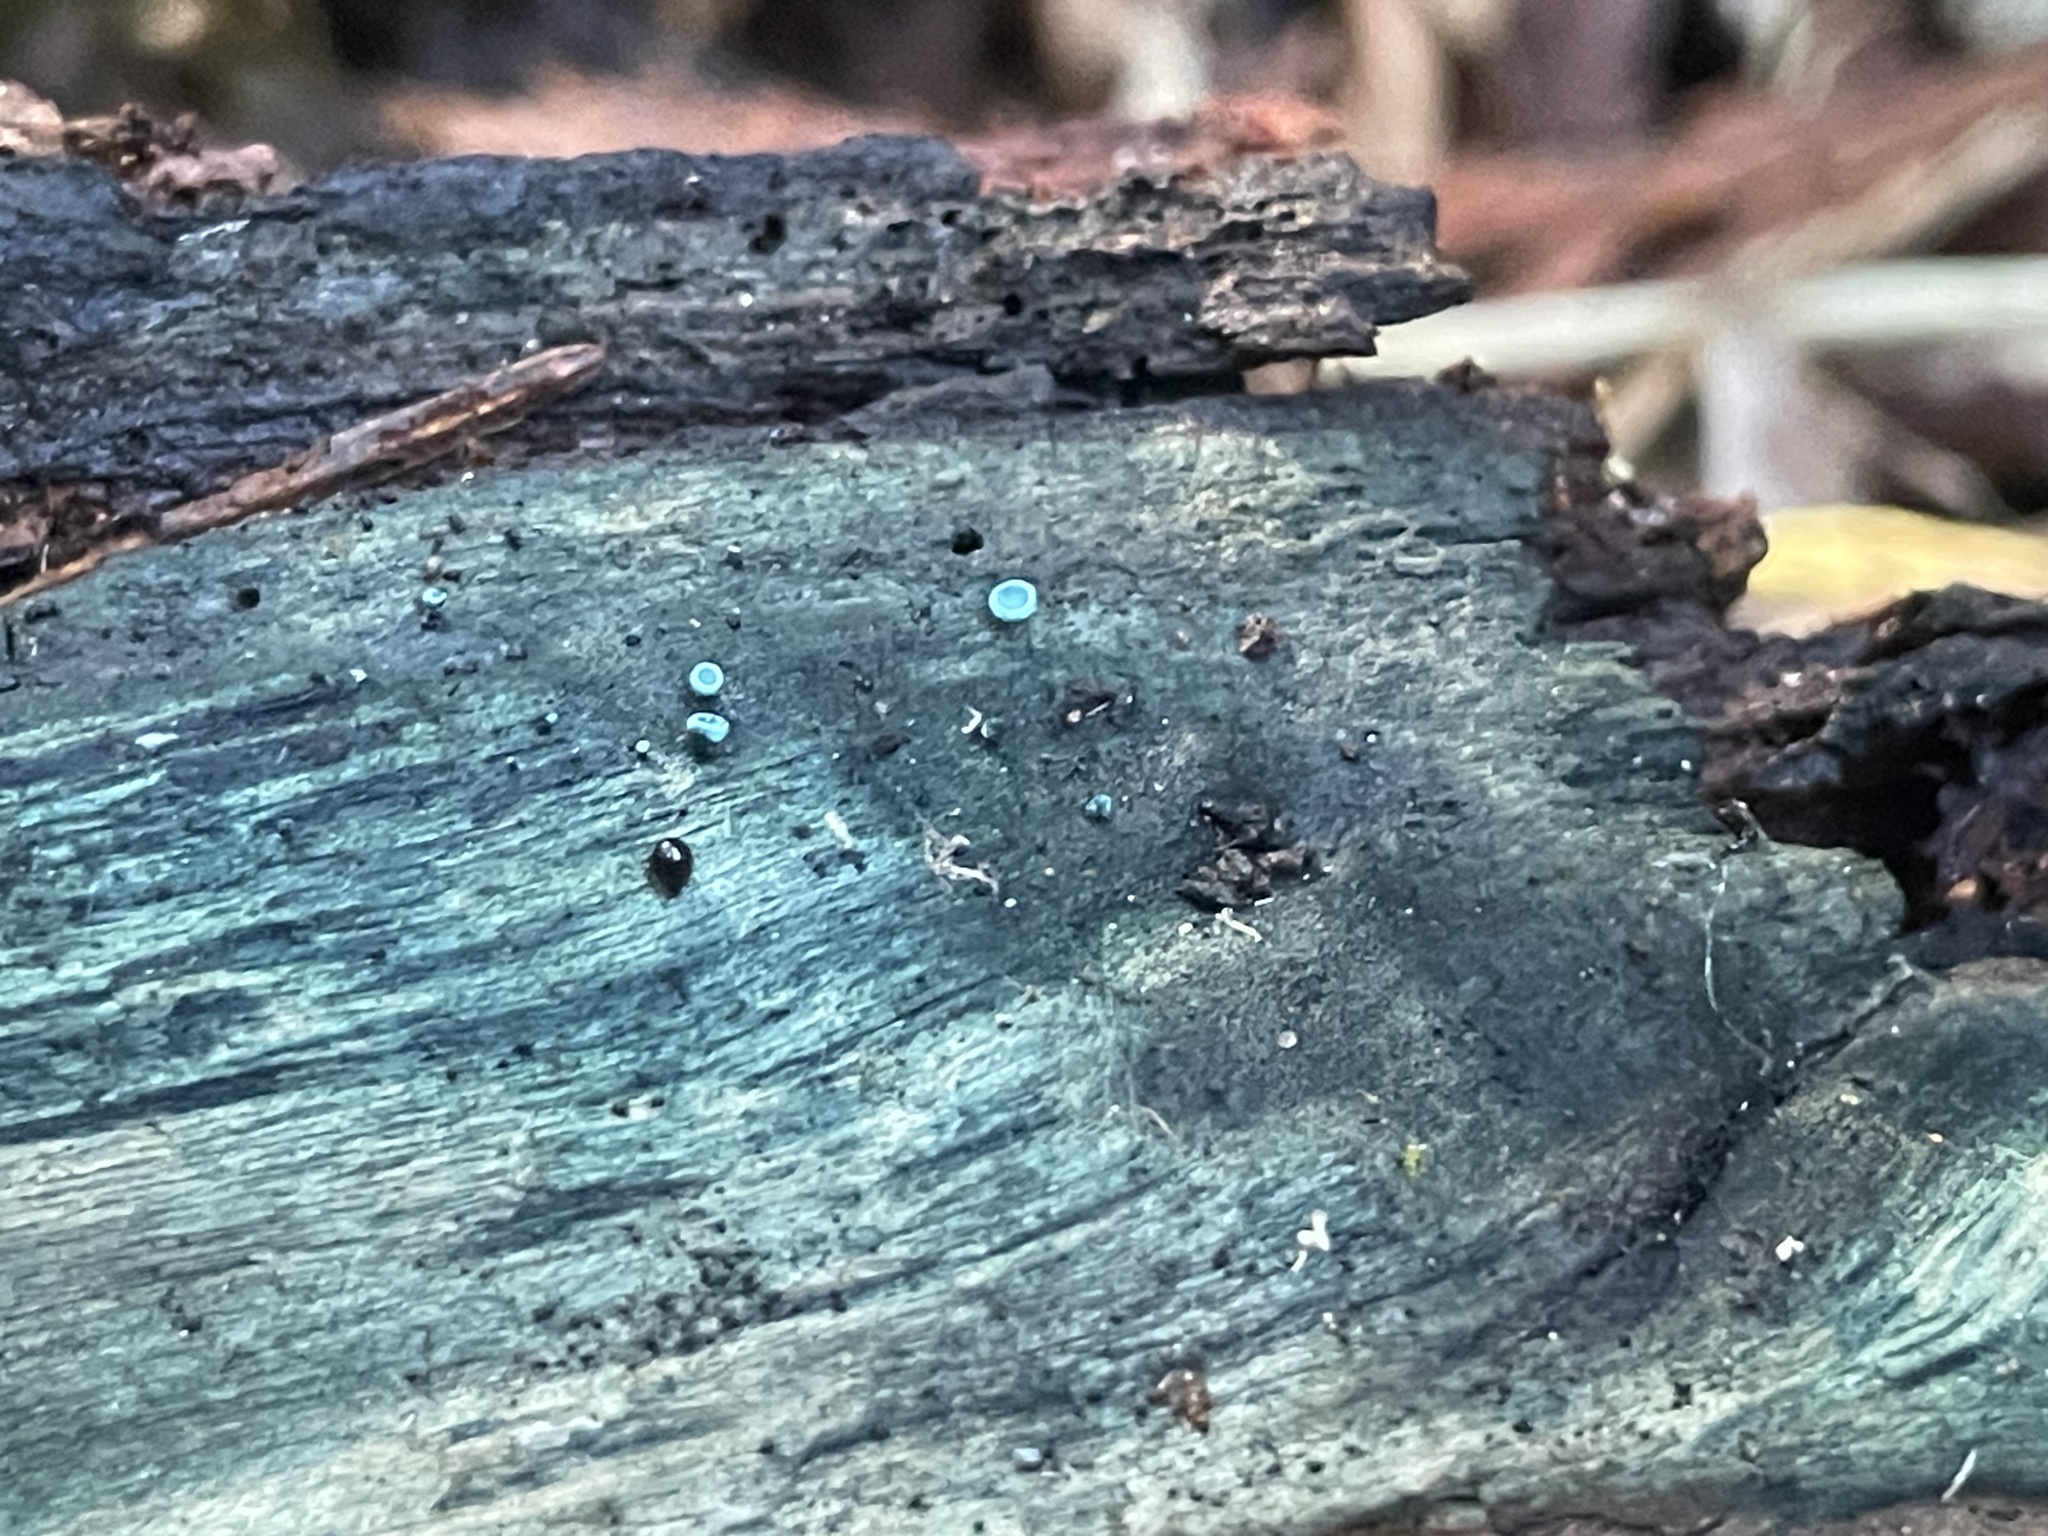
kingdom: Fungi
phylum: Ascomycota
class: Leotiomycetes
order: Helotiales
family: Chlorociboriaceae
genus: Chlorociboria
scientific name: Chlorociboria aeruginosa
